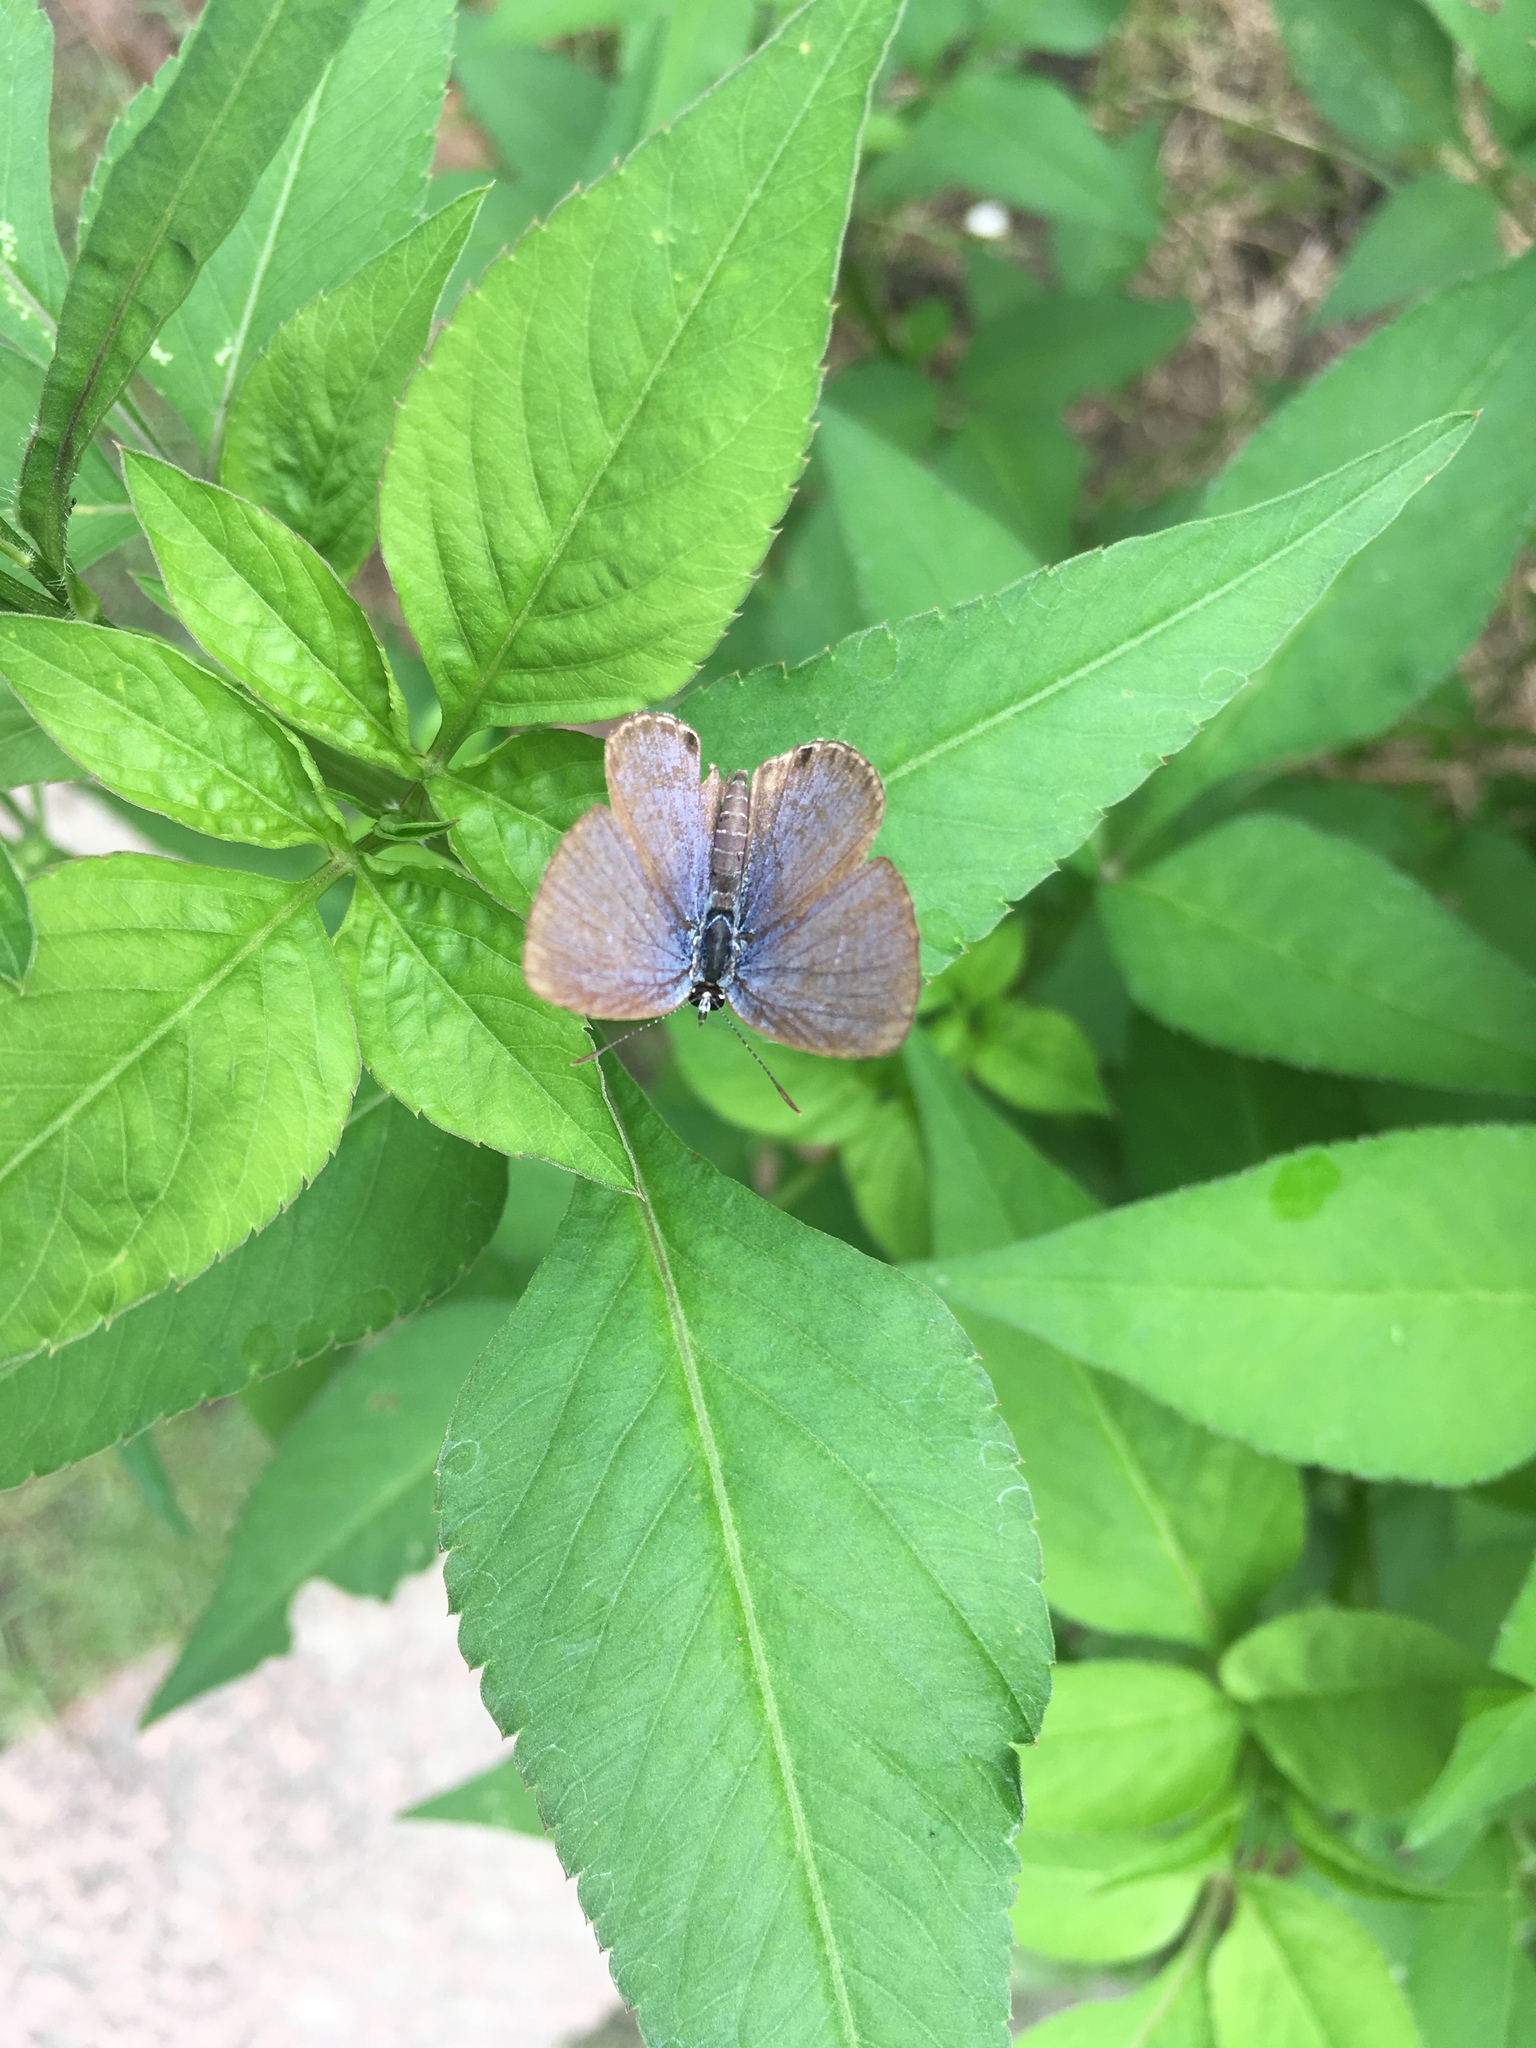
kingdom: Animalia
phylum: Arthropoda
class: Insecta
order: Lepidoptera
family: Lycaenidae
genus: Luthrodes
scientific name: Luthrodes pandava
